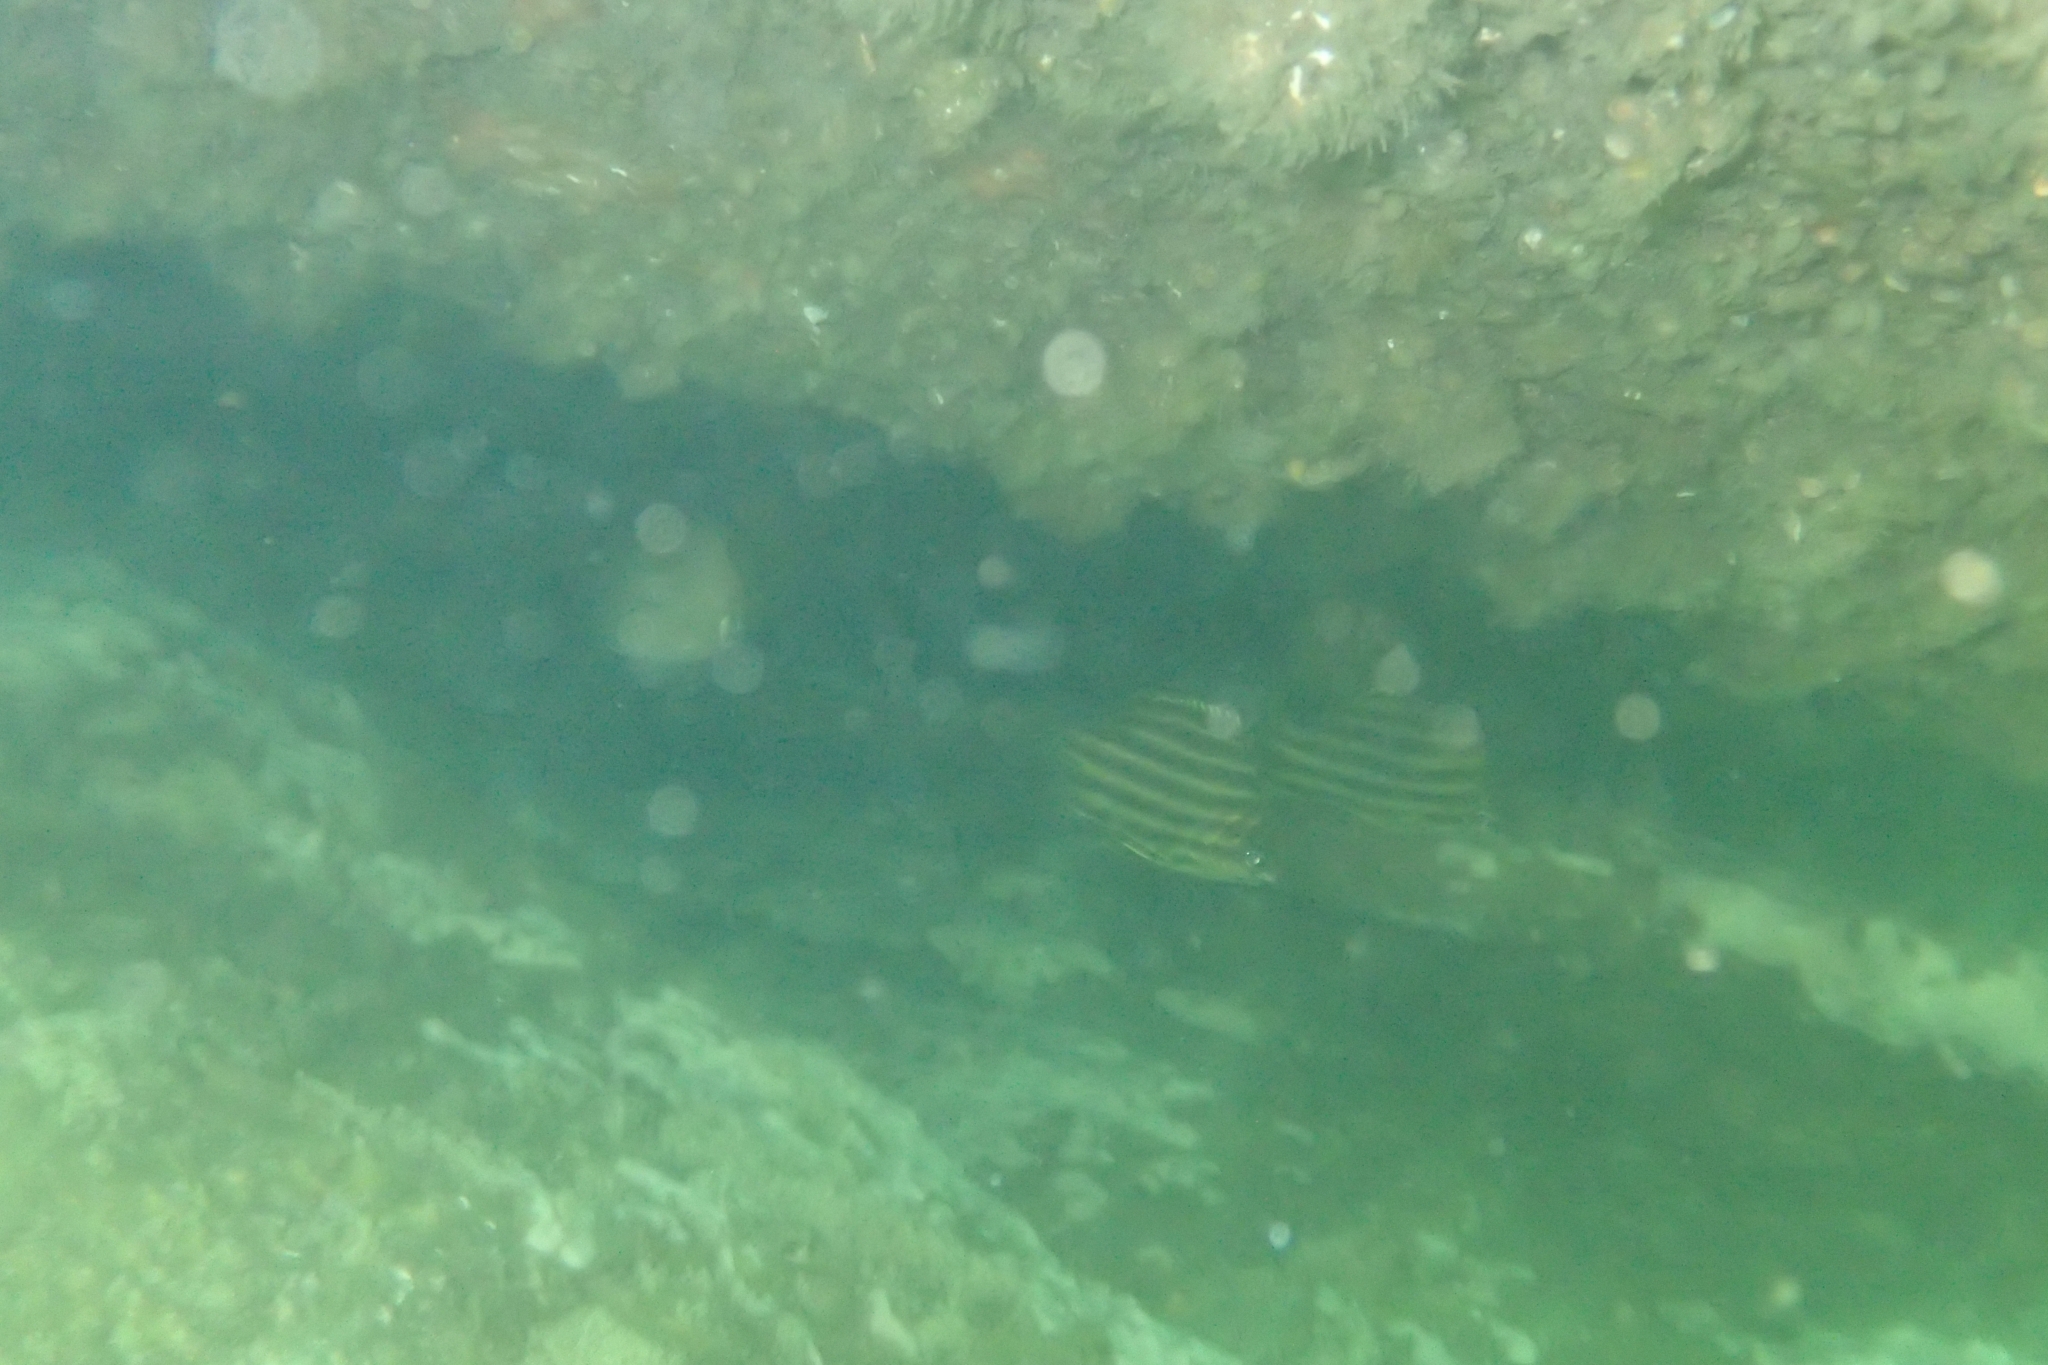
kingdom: Animalia
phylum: Chordata
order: Perciformes
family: Kyphosidae
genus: Microcanthus
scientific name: Microcanthus joyceae
